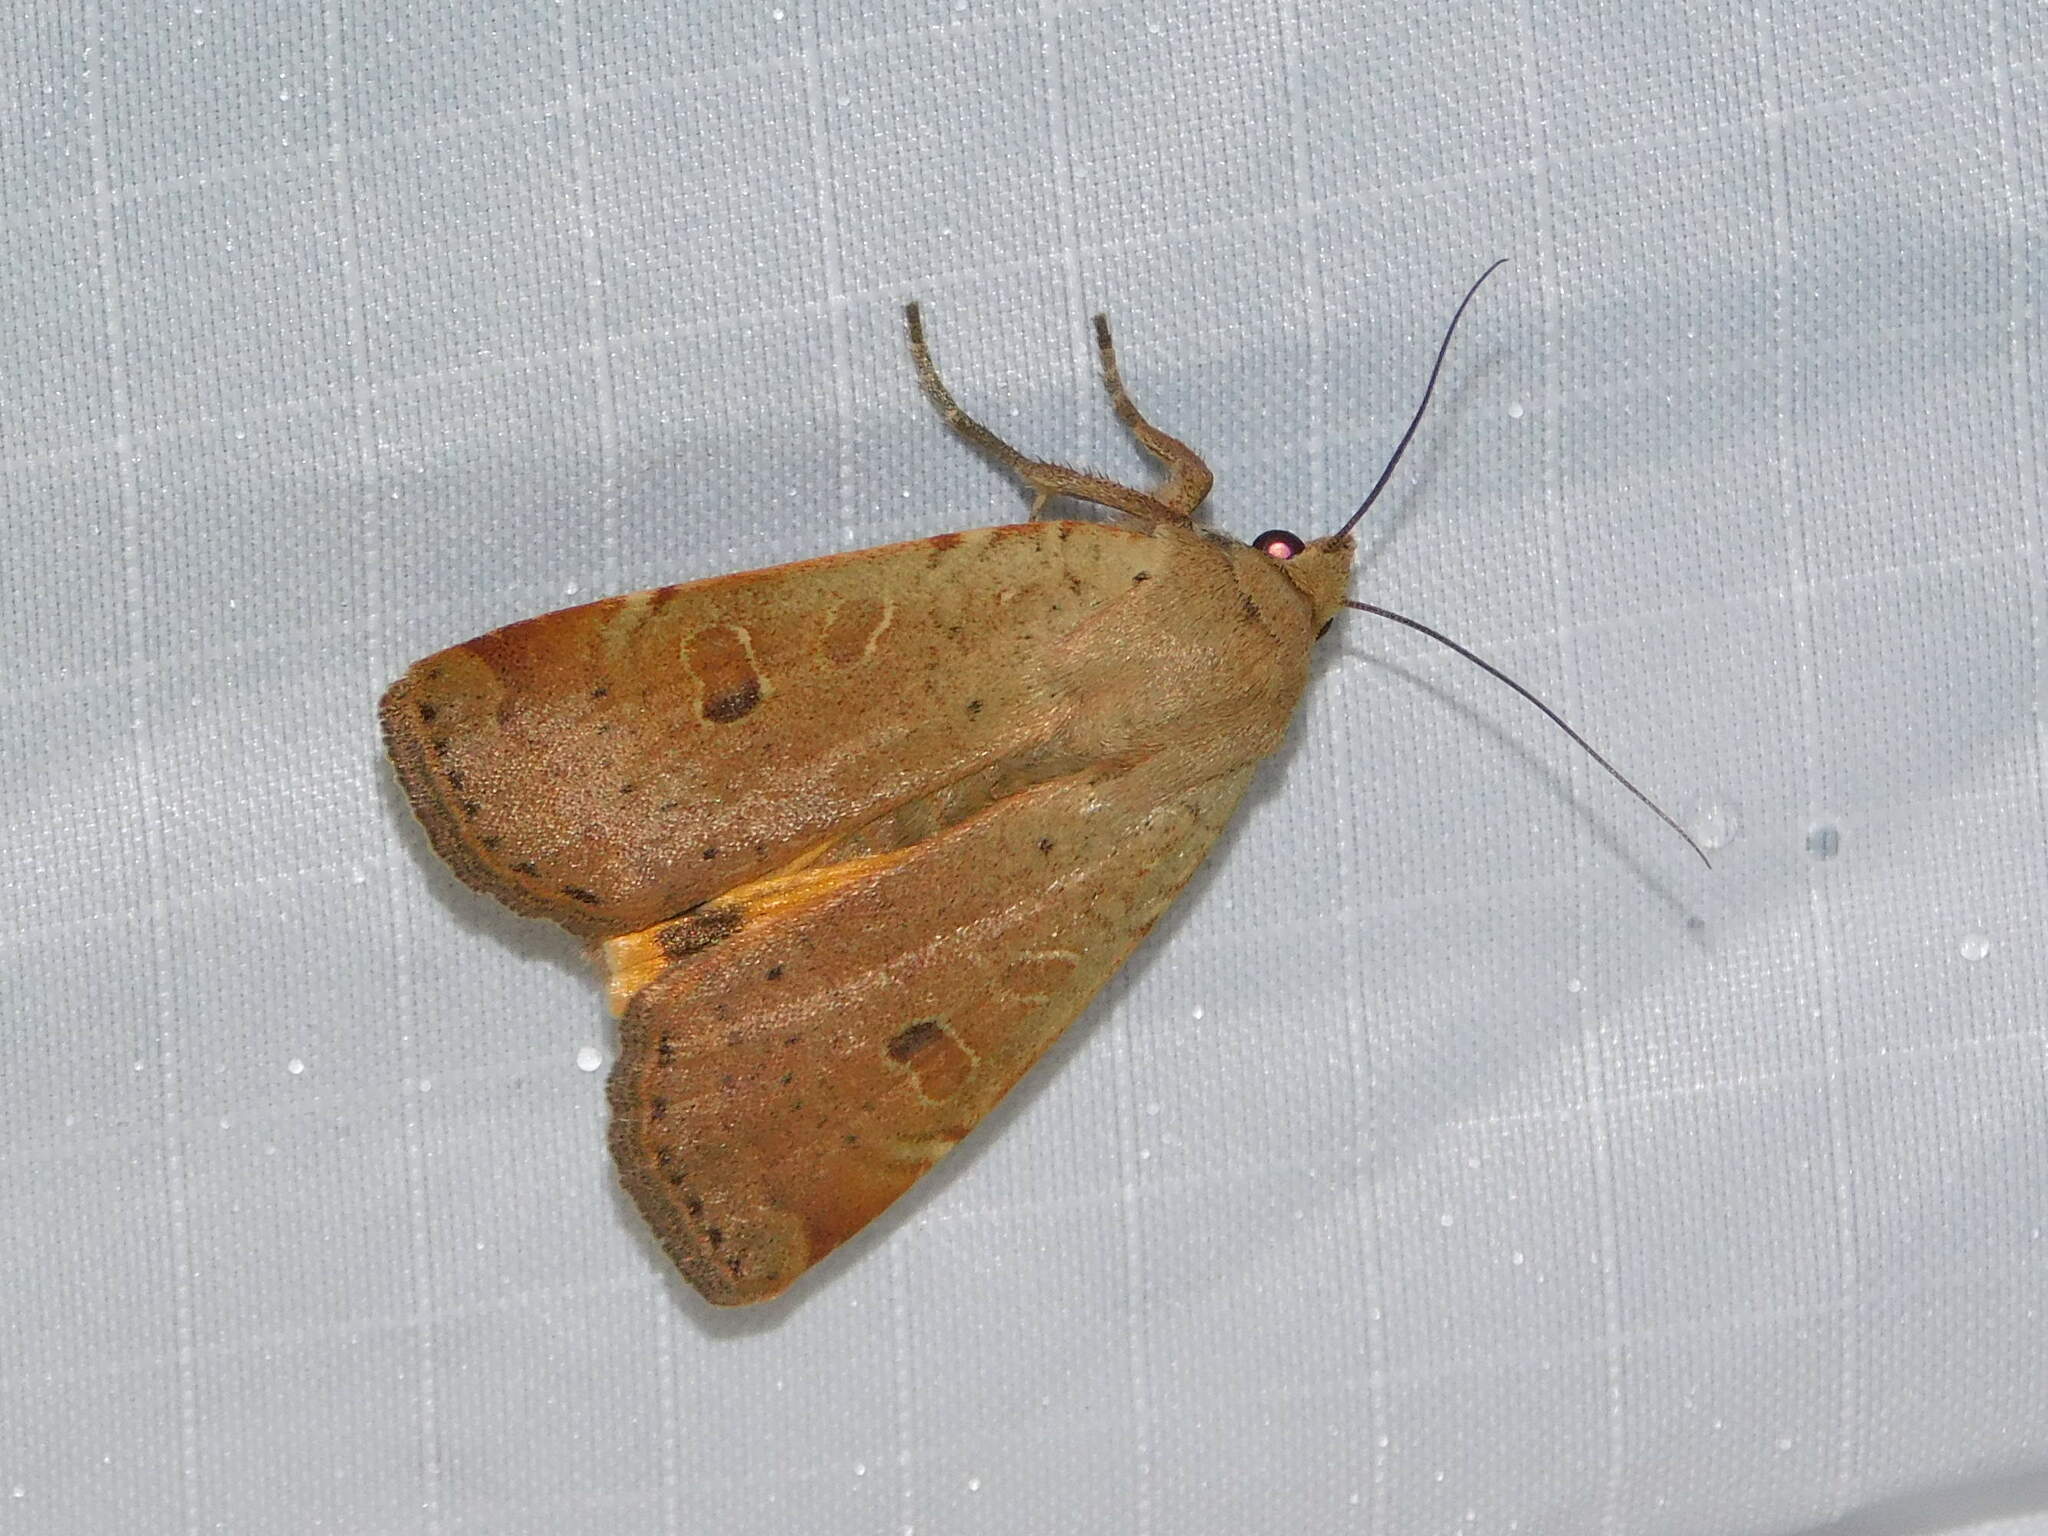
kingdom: Animalia
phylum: Arthropoda
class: Insecta
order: Lepidoptera
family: Noctuidae
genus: Noctua
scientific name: Noctua comes
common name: Lesser yellow underwing
